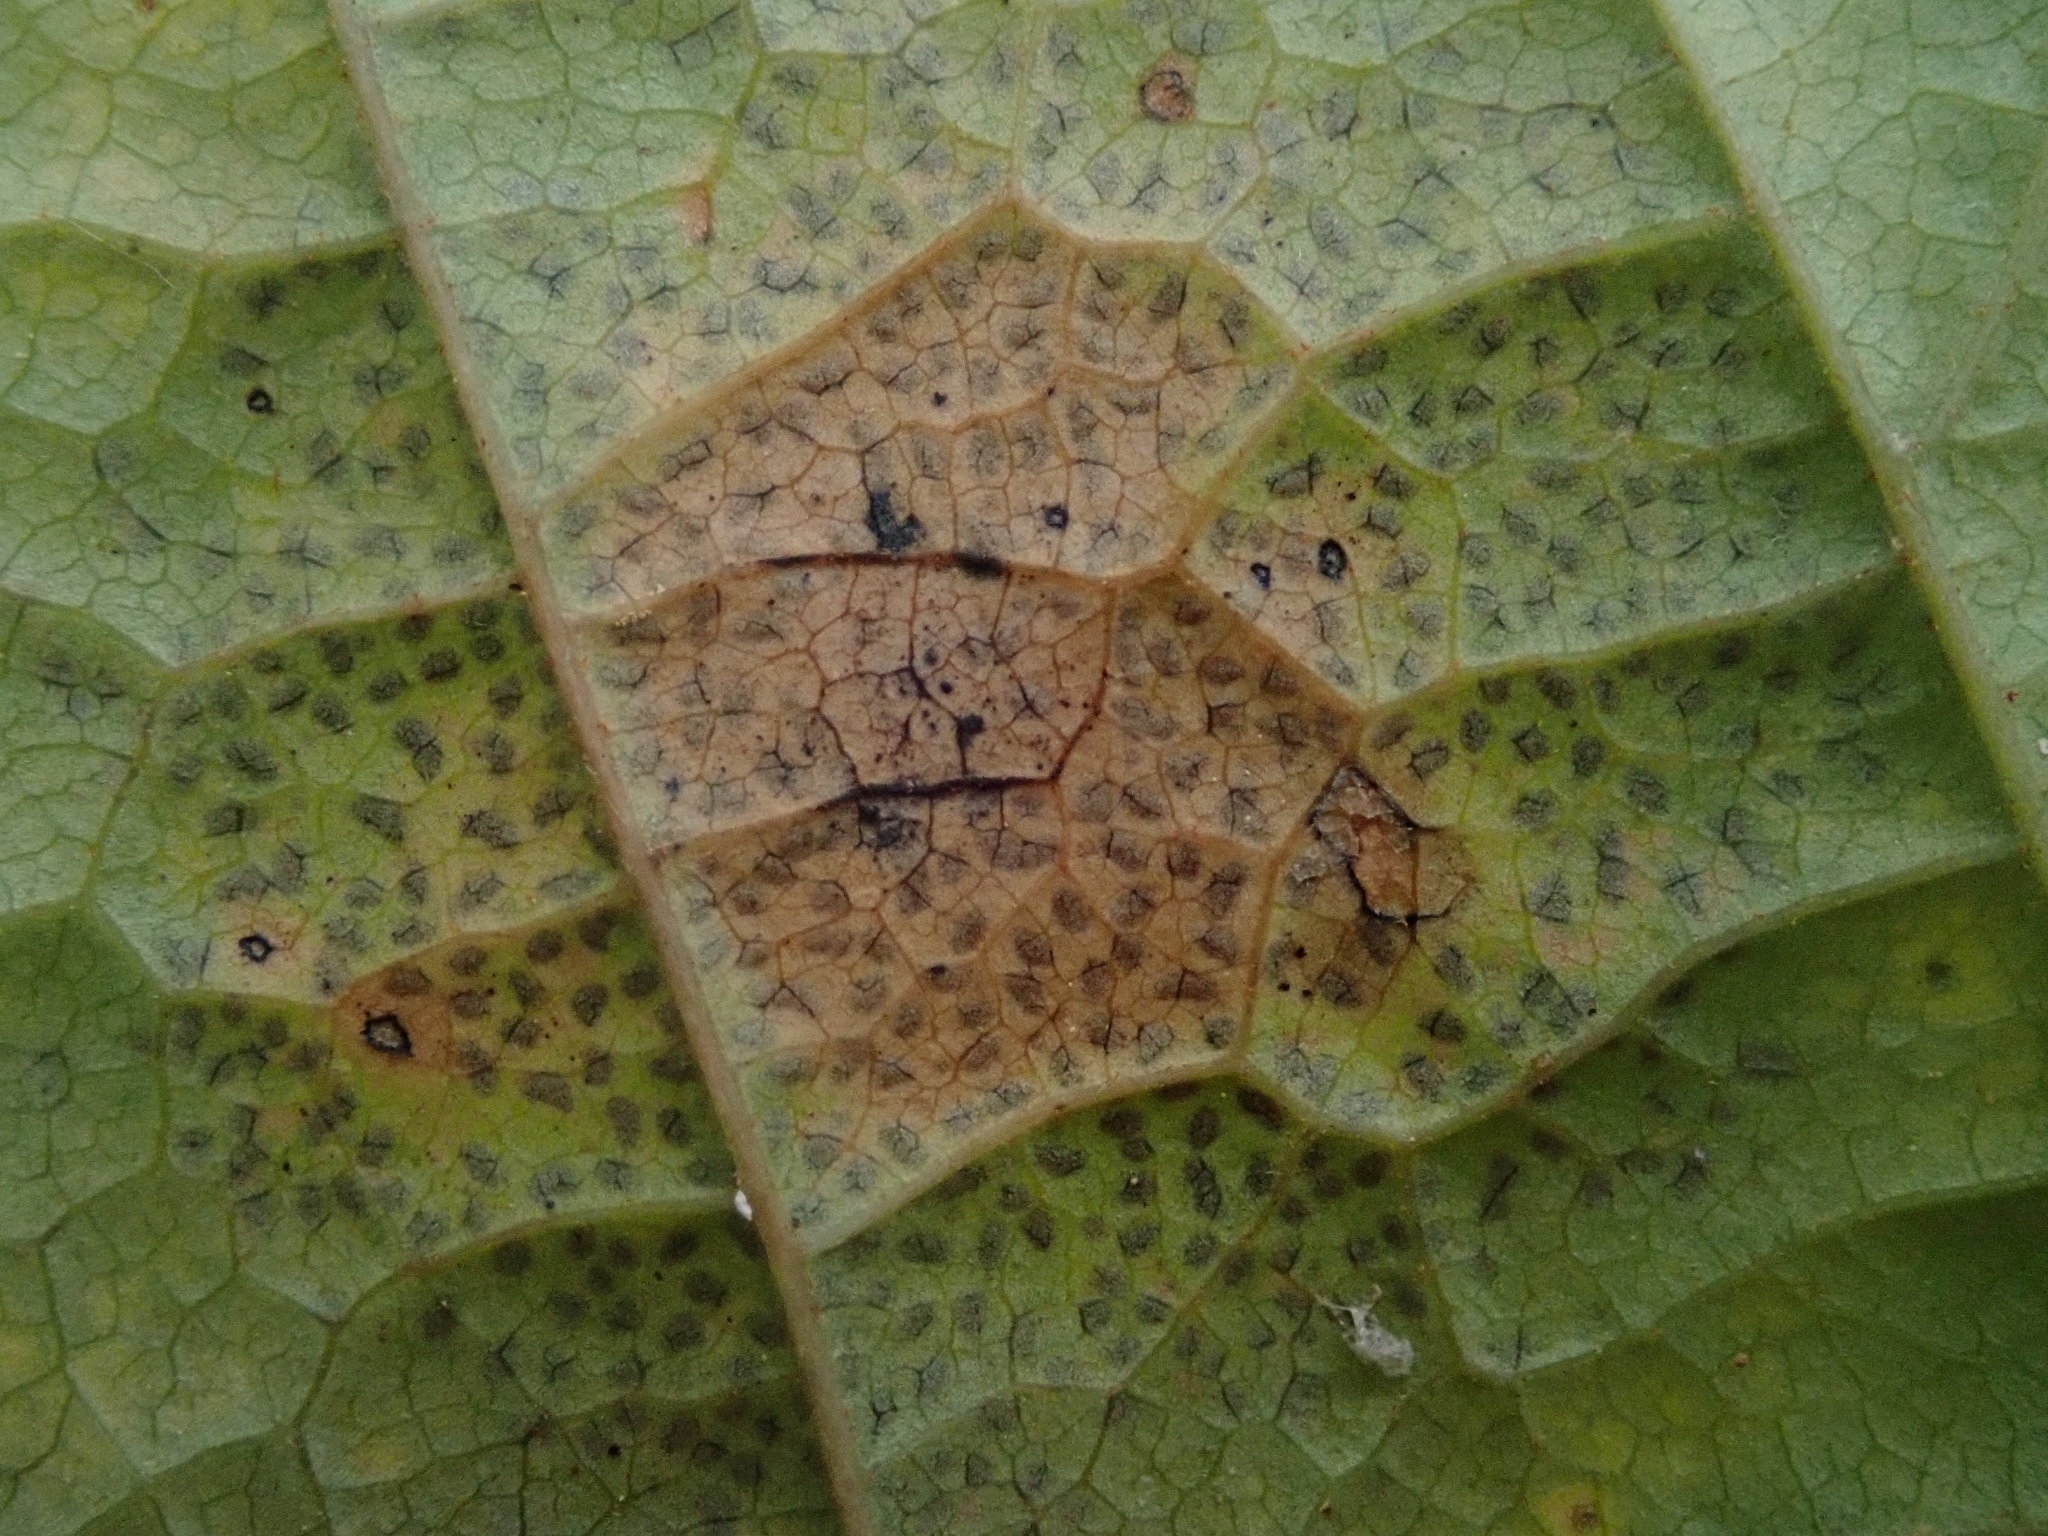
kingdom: Fungi
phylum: Ascomycota
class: Leotiomycetes
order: Rhytismatales
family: Rhytismataceae
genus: Rhytisma
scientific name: Rhytisma punctatum
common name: Speckled tar spot
